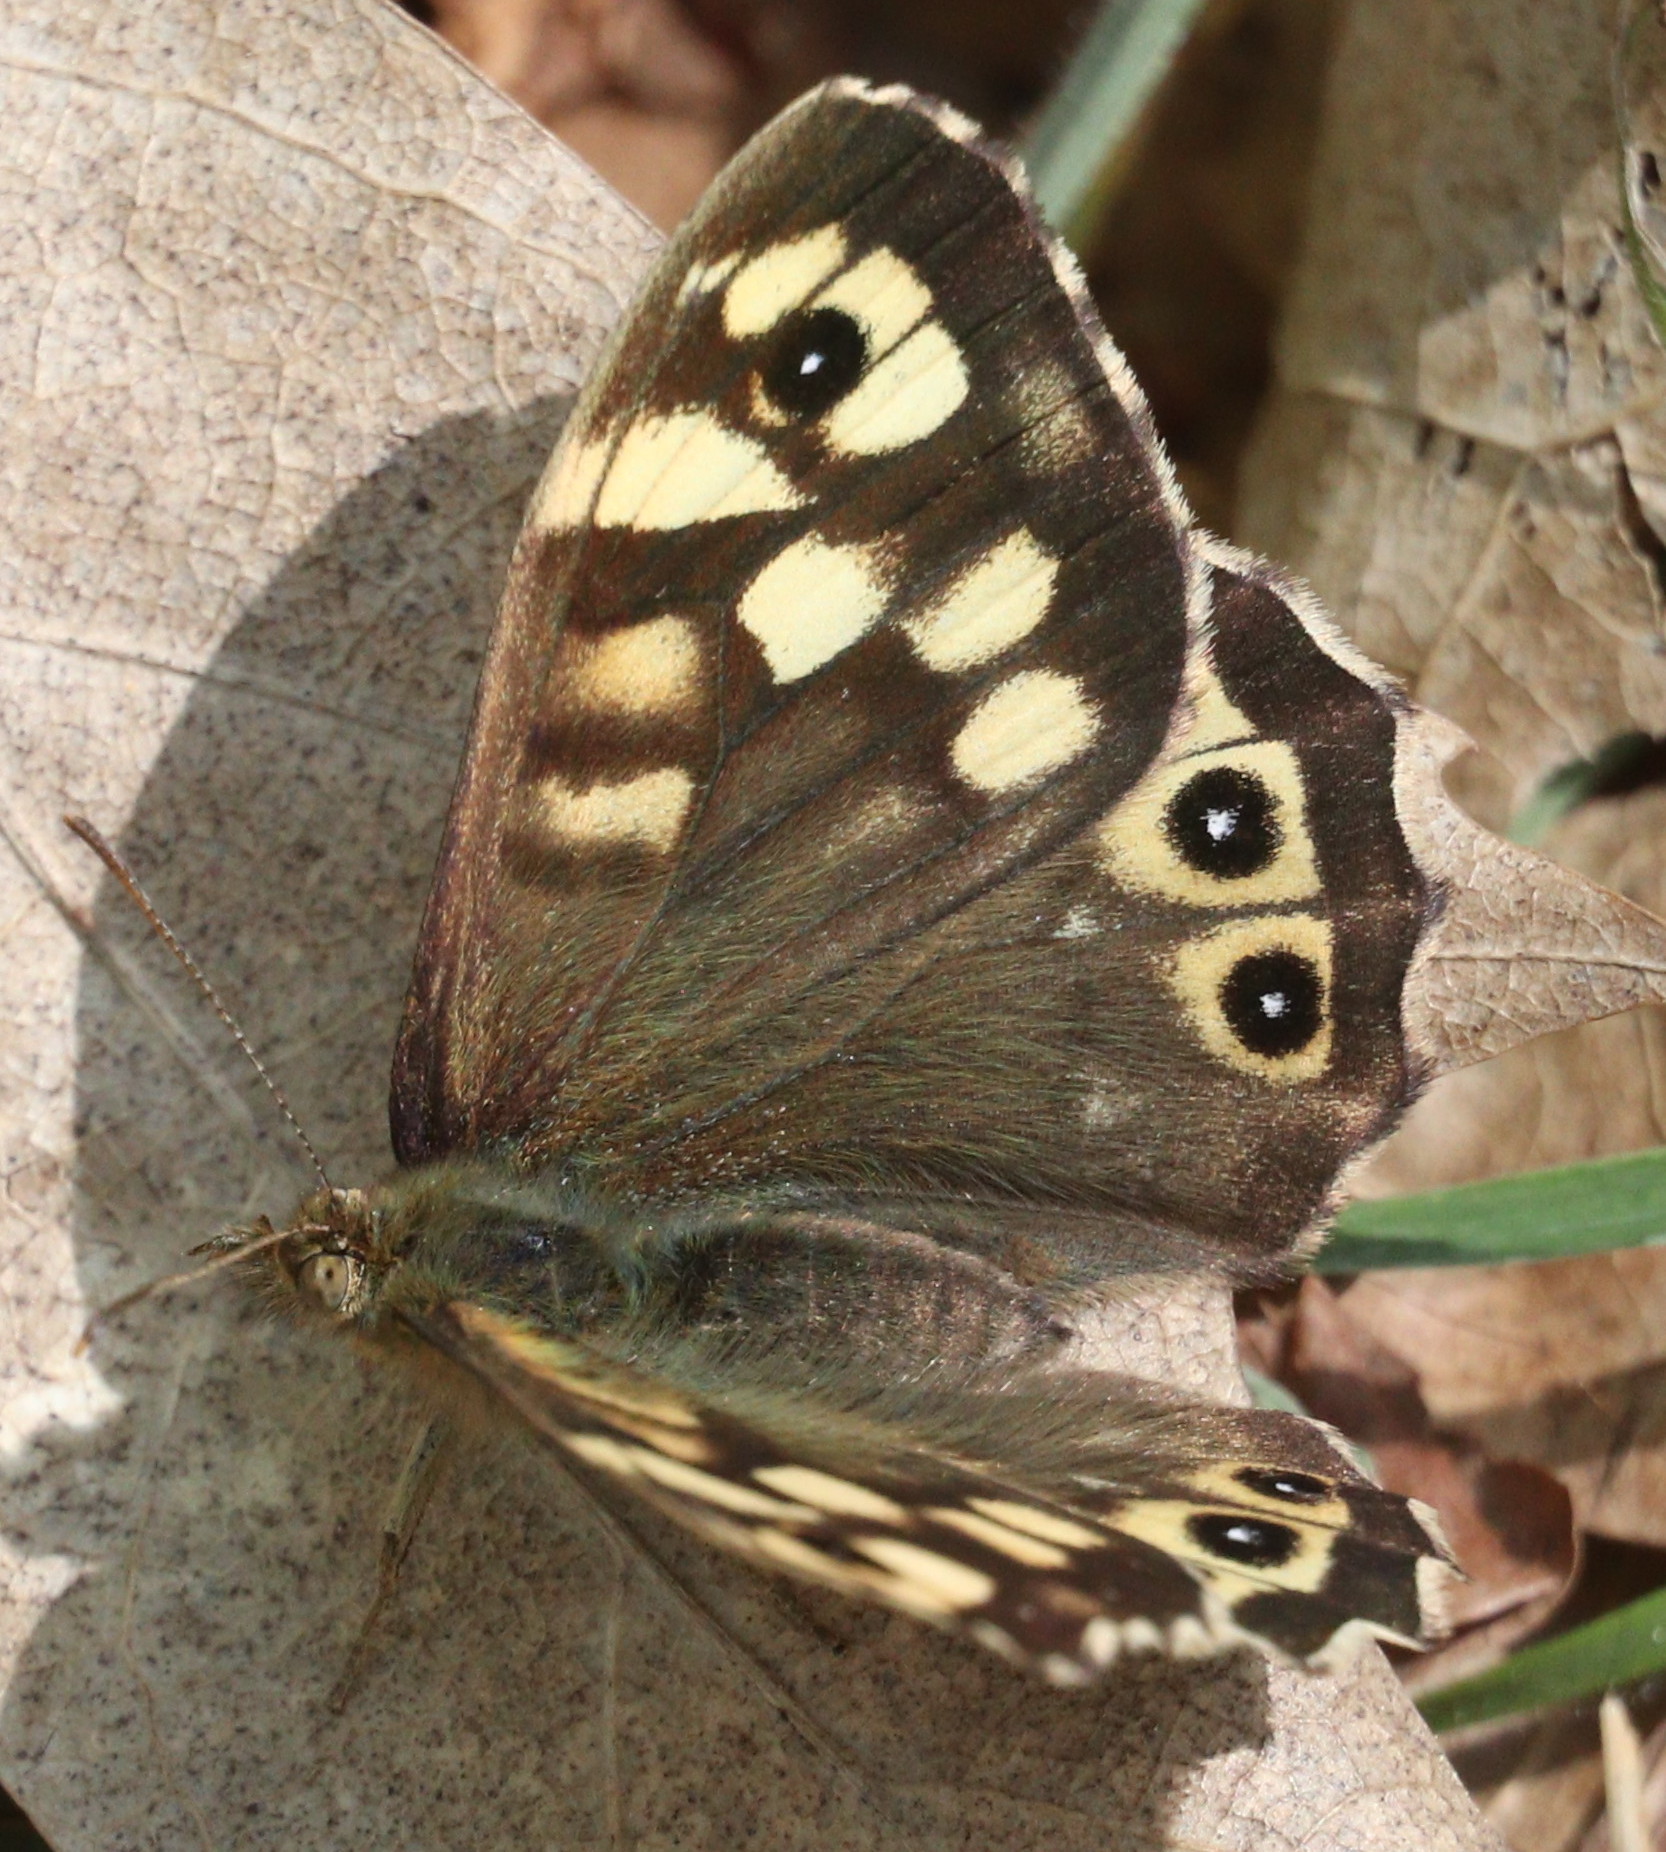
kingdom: Animalia
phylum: Arthropoda
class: Insecta
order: Lepidoptera
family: Nymphalidae
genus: Pararge
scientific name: Pararge aegeria
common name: Speckled wood
